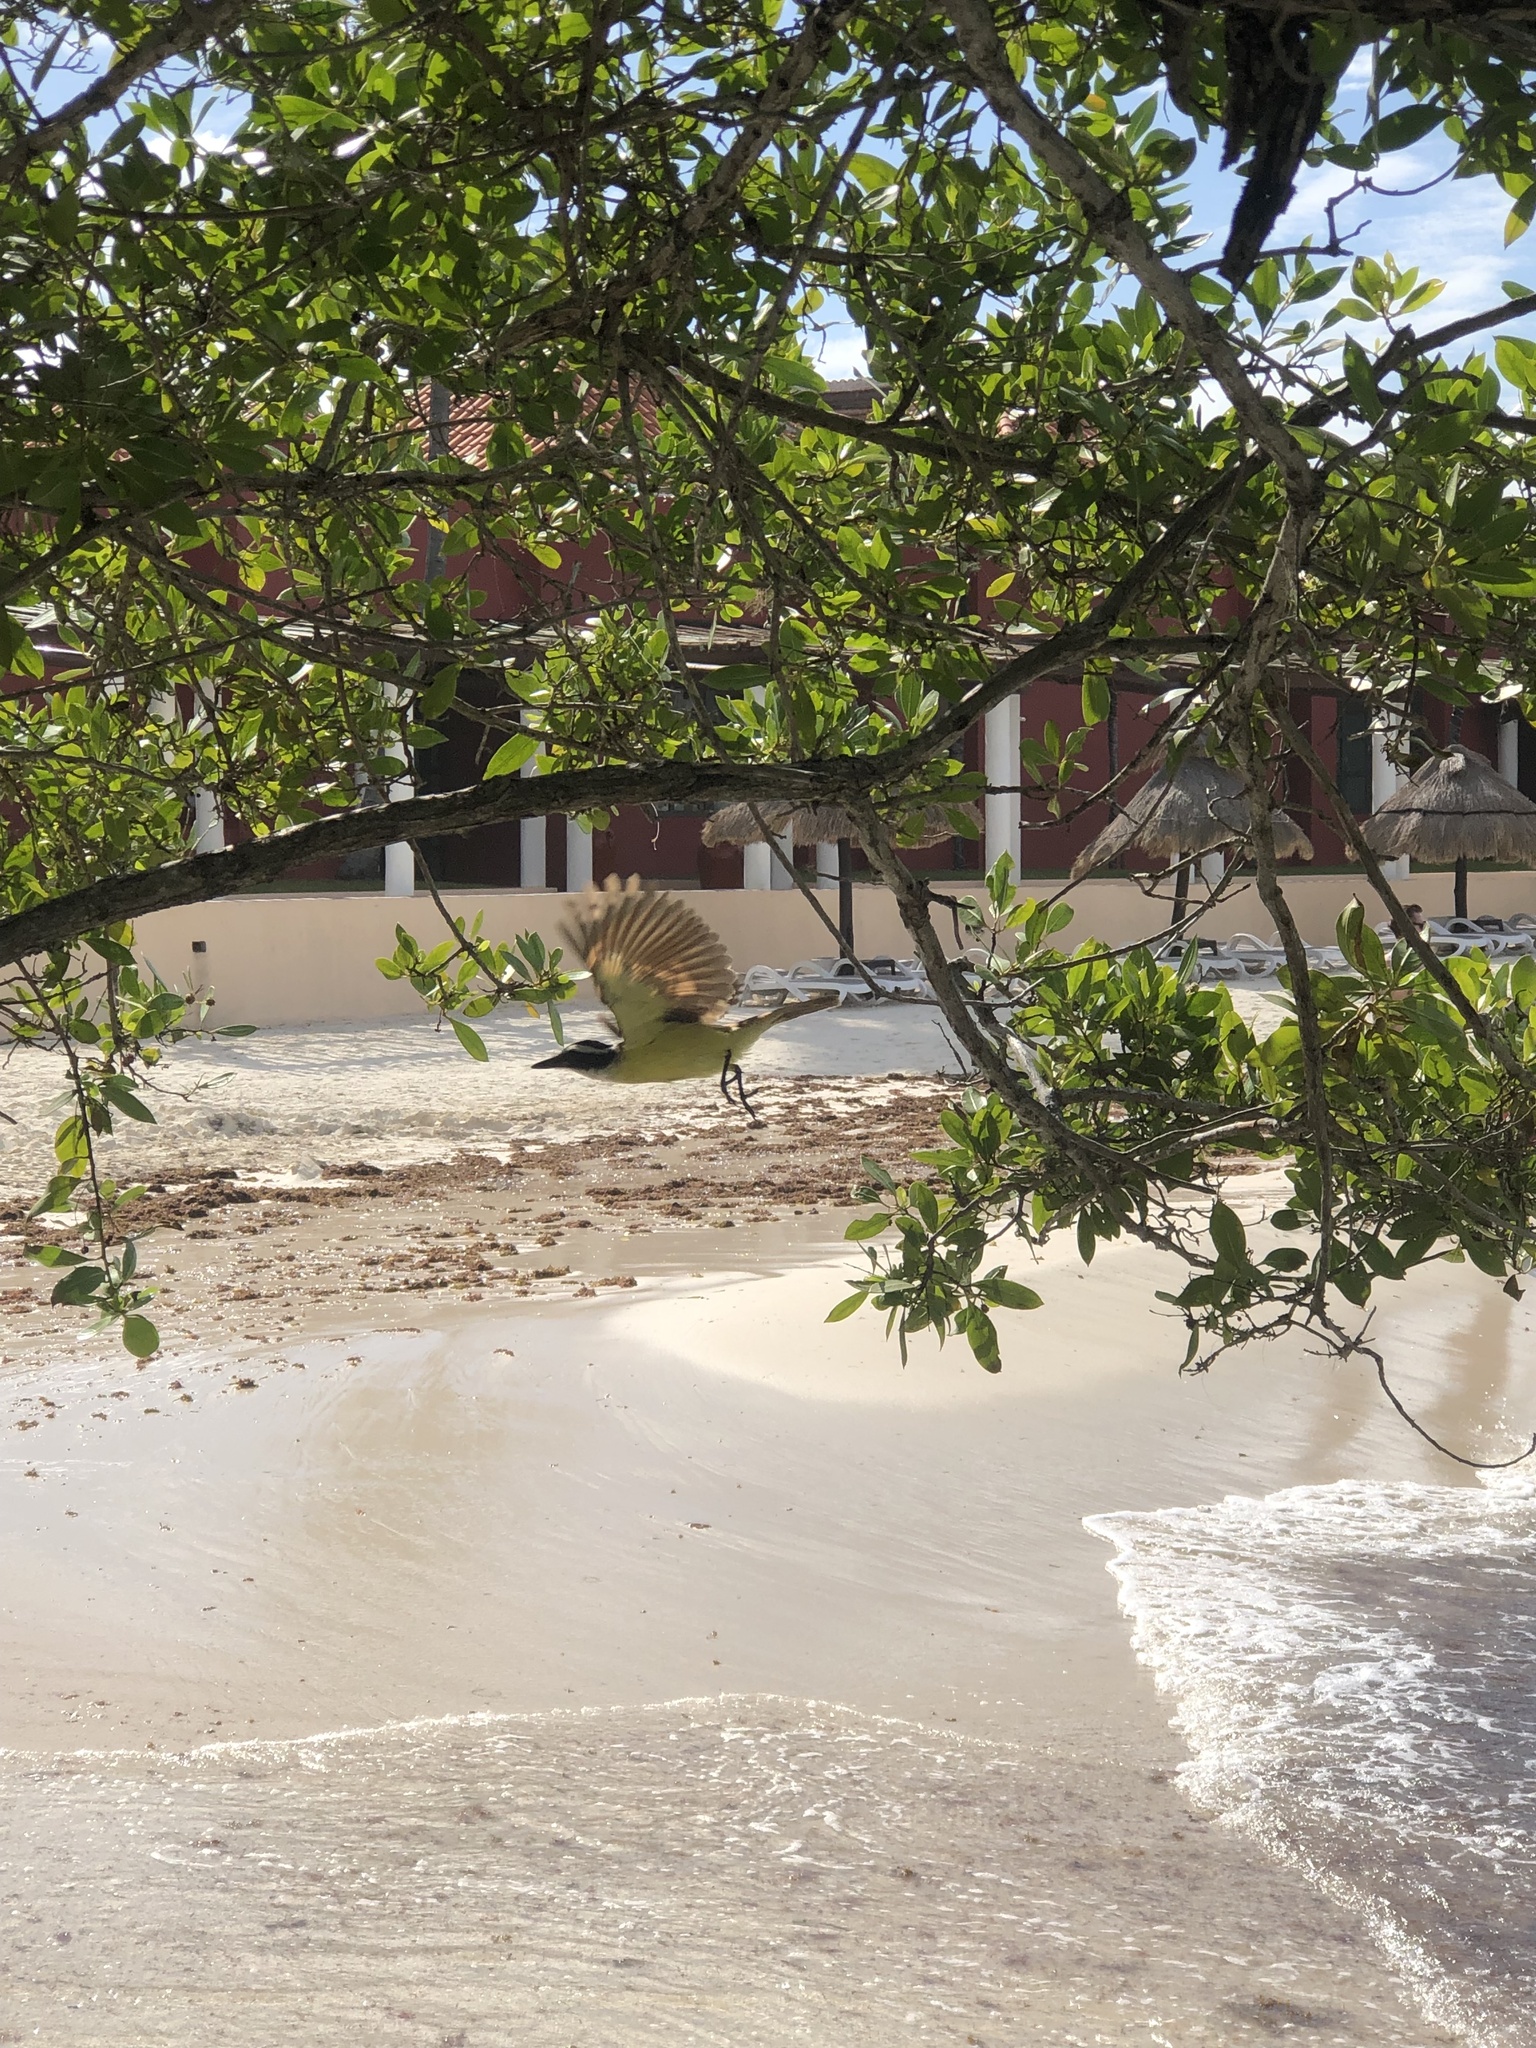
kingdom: Animalia
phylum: Chordata
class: Aves
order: Passeriformes
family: Tyrannidae
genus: Pitangus
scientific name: Pitangus sulphuratus
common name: Great kiskadee
